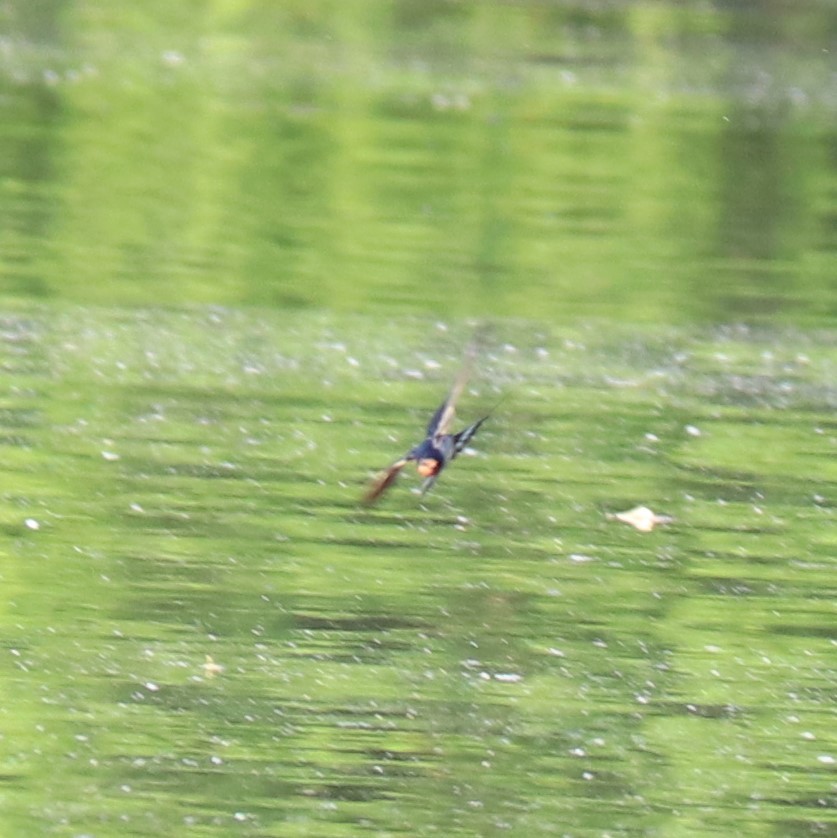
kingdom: Animalia
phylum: Chordata
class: Aves
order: Passeriformes
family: Hirundinidae
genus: Hirundo
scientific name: Hirundo rustica
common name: Barn swallow
